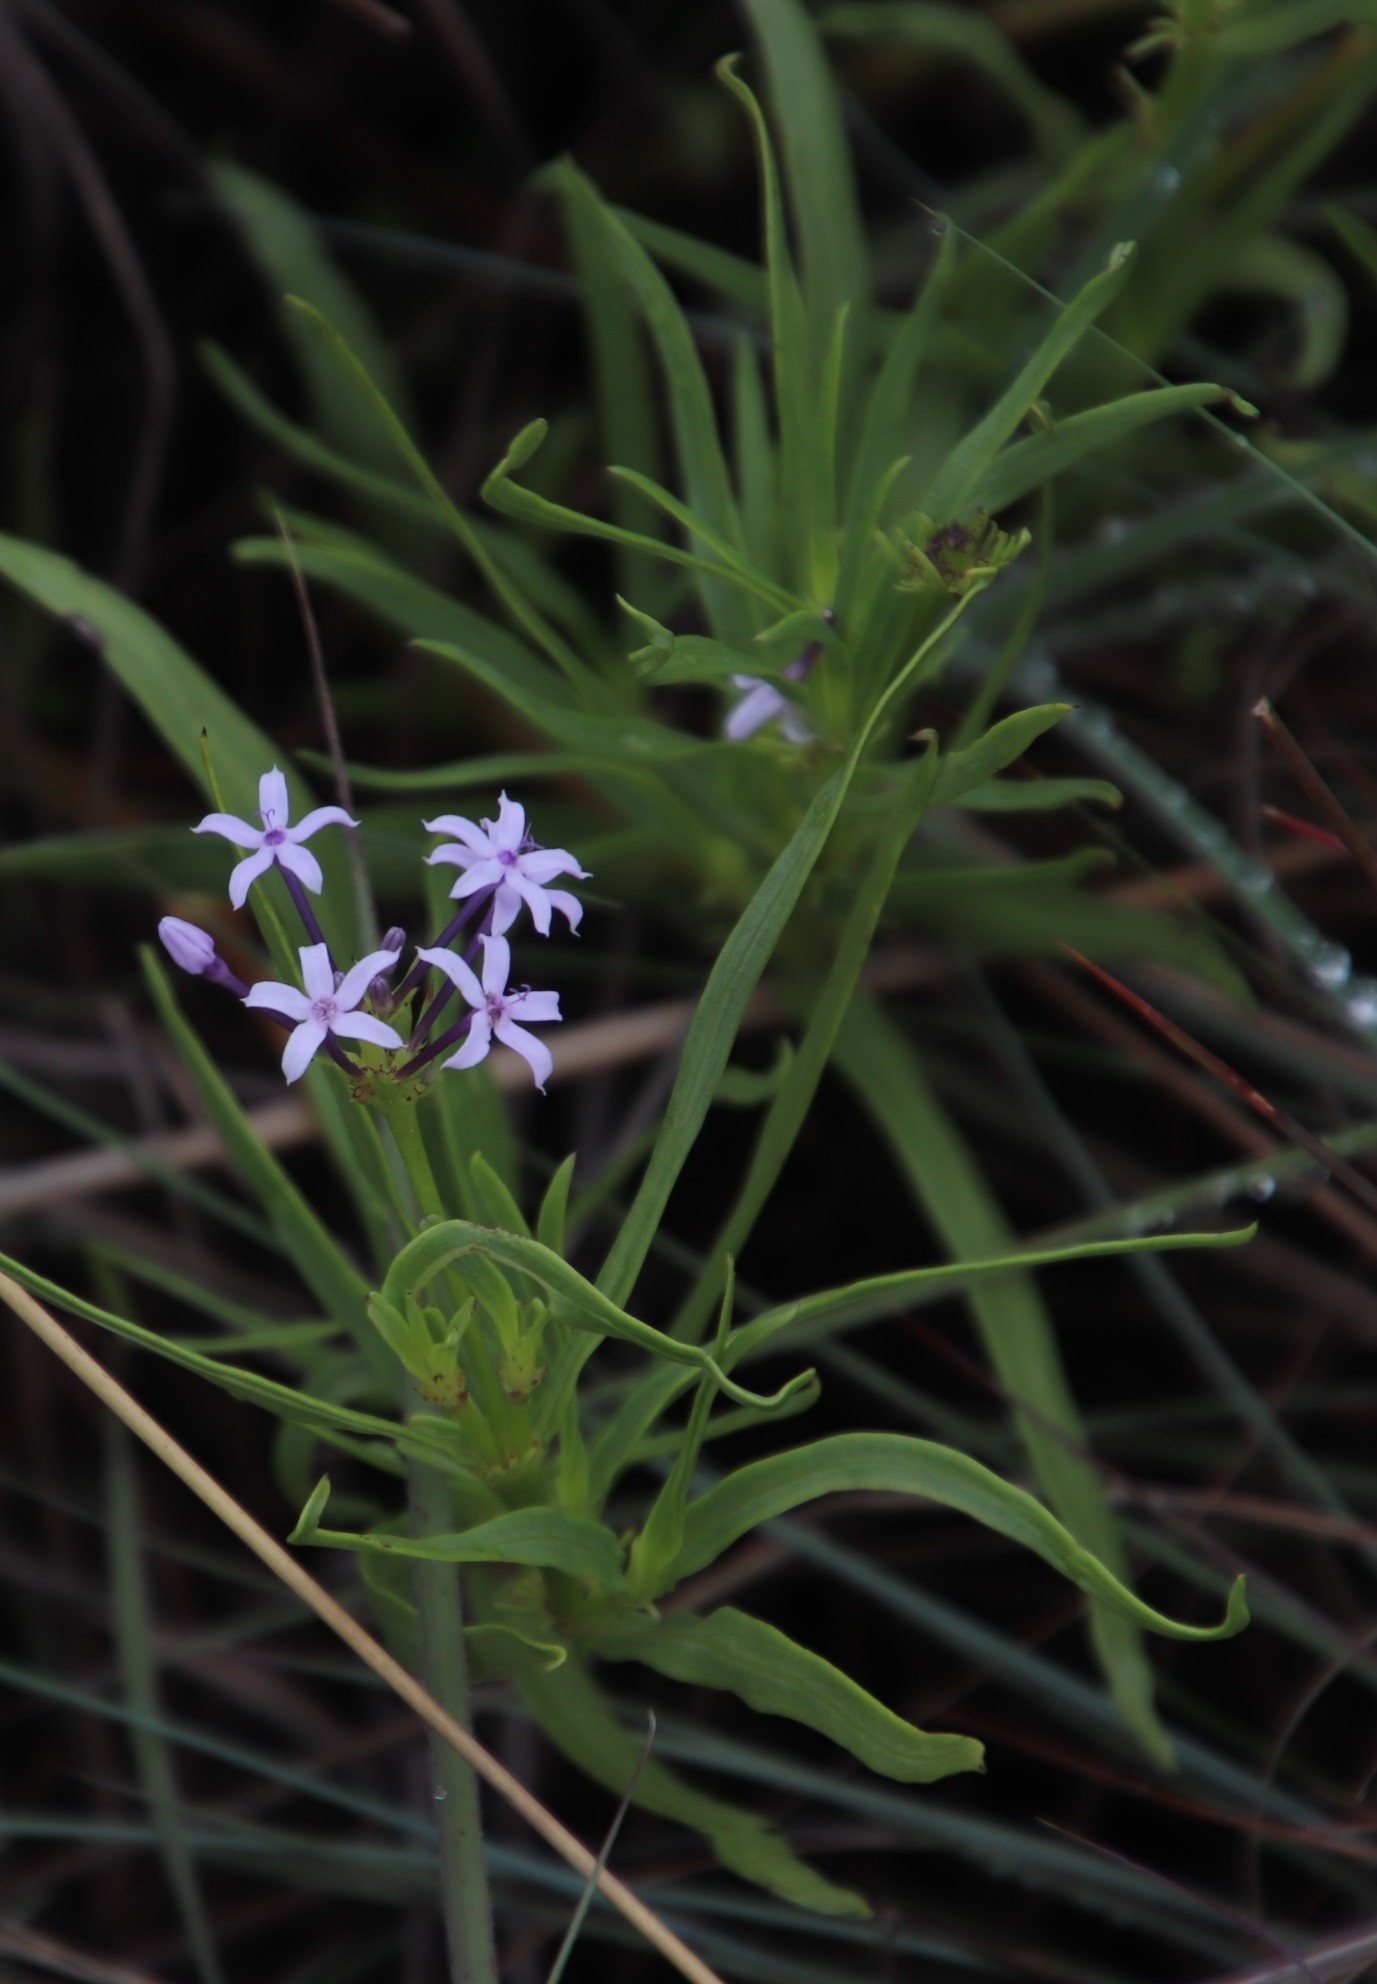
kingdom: Plantae
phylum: Tracheophyta
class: Magnoliopsida
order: Gentianales
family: Rubiaceae
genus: Pentanisia
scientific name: Pentanisia angustifolia
